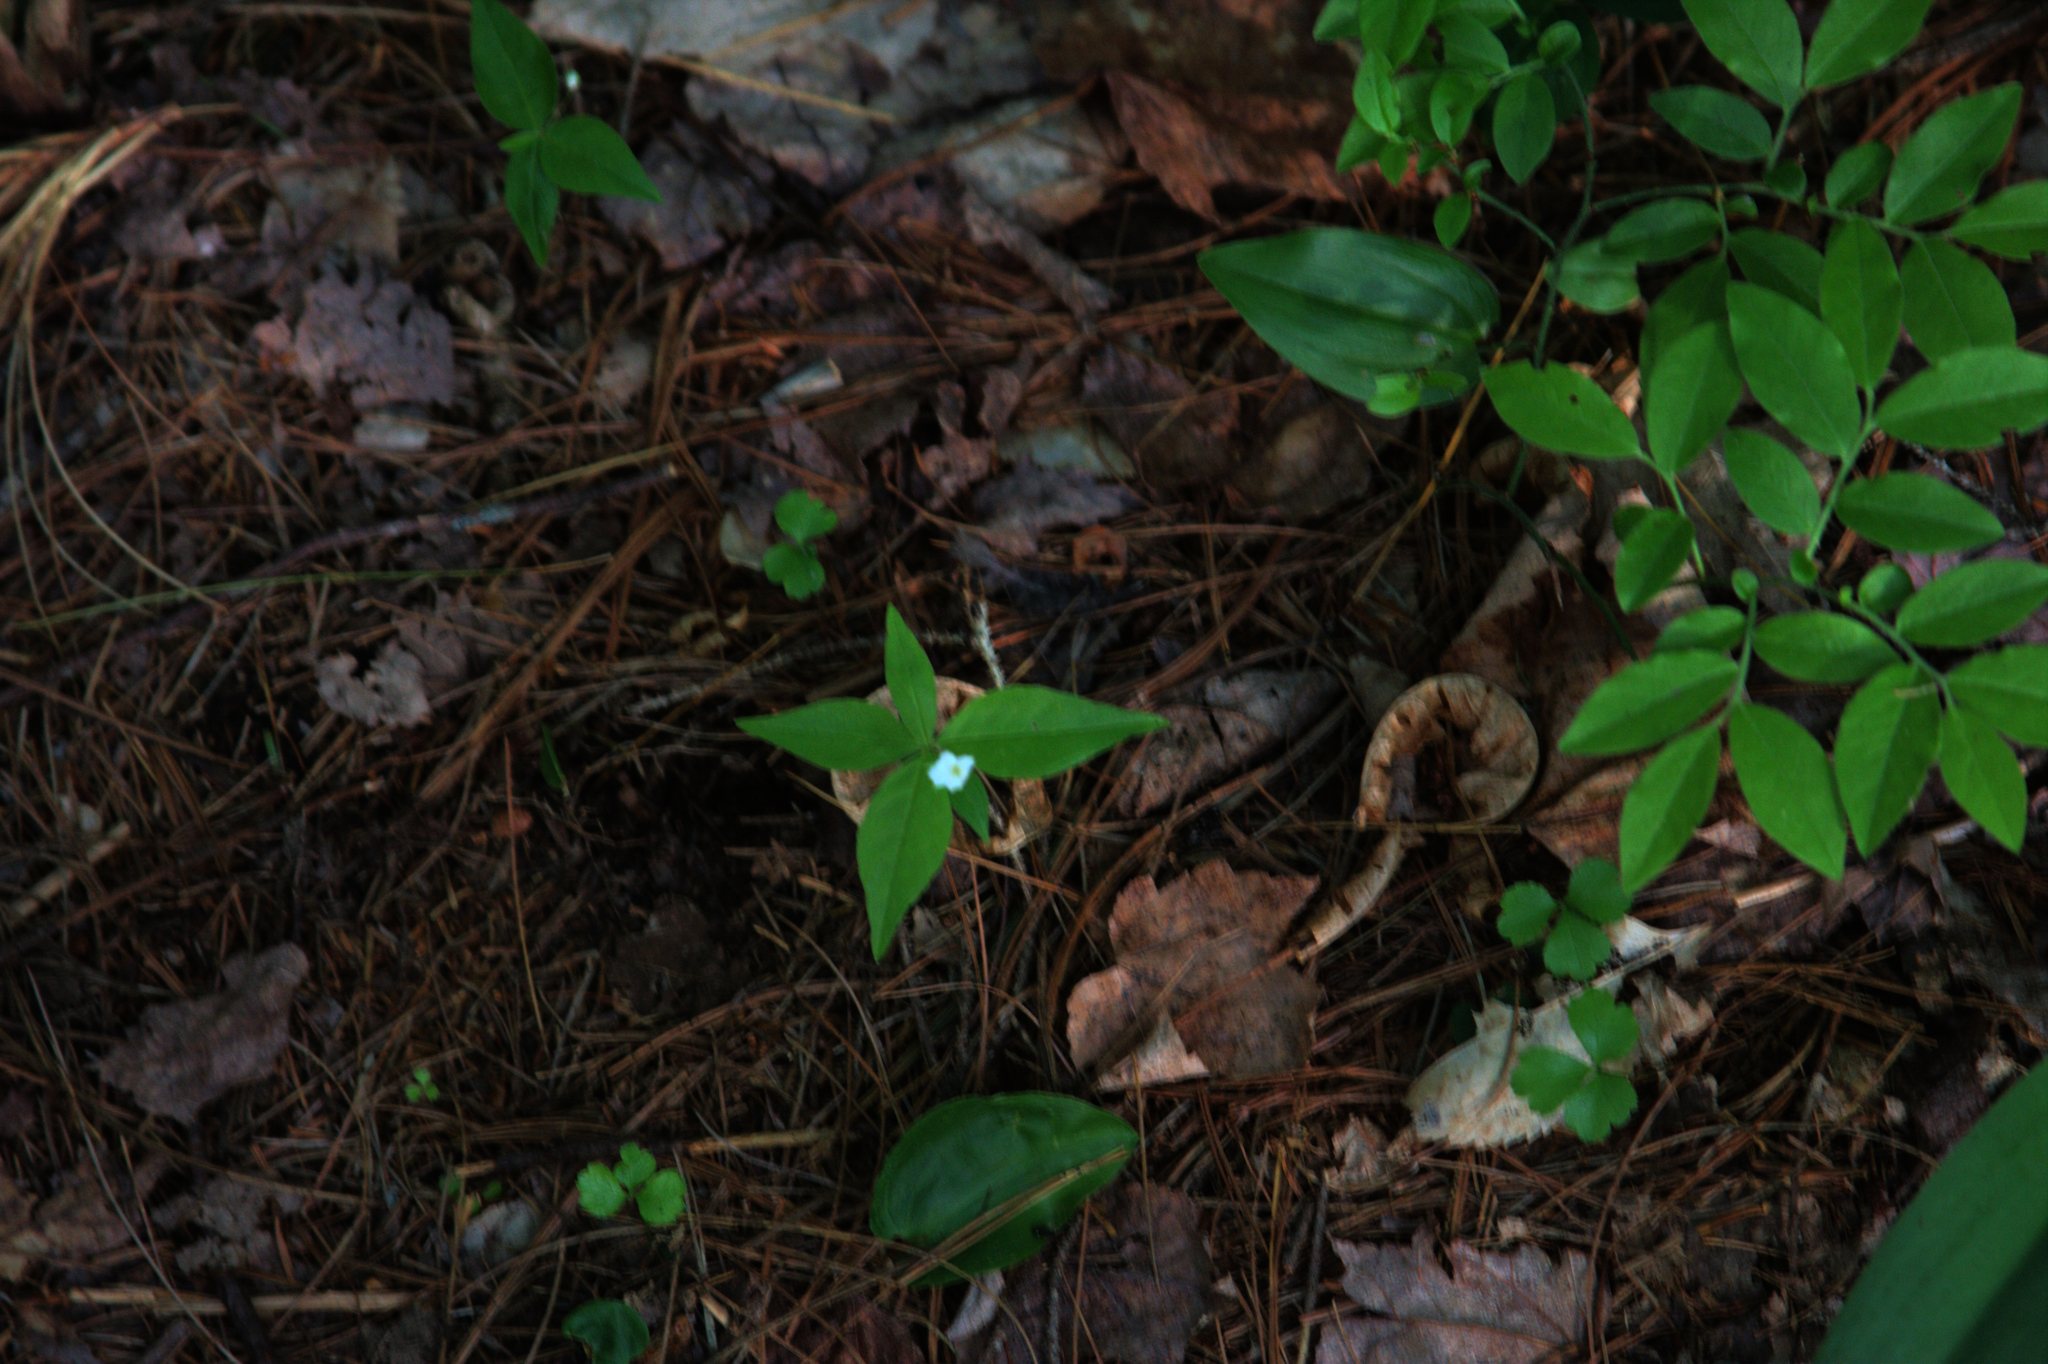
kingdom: Plantae
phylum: Tracheophyta
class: Magnoliopsida
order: Ericales
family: Primulaceae
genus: Lysimachia
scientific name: Lysimachia borealis
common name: American starflower
